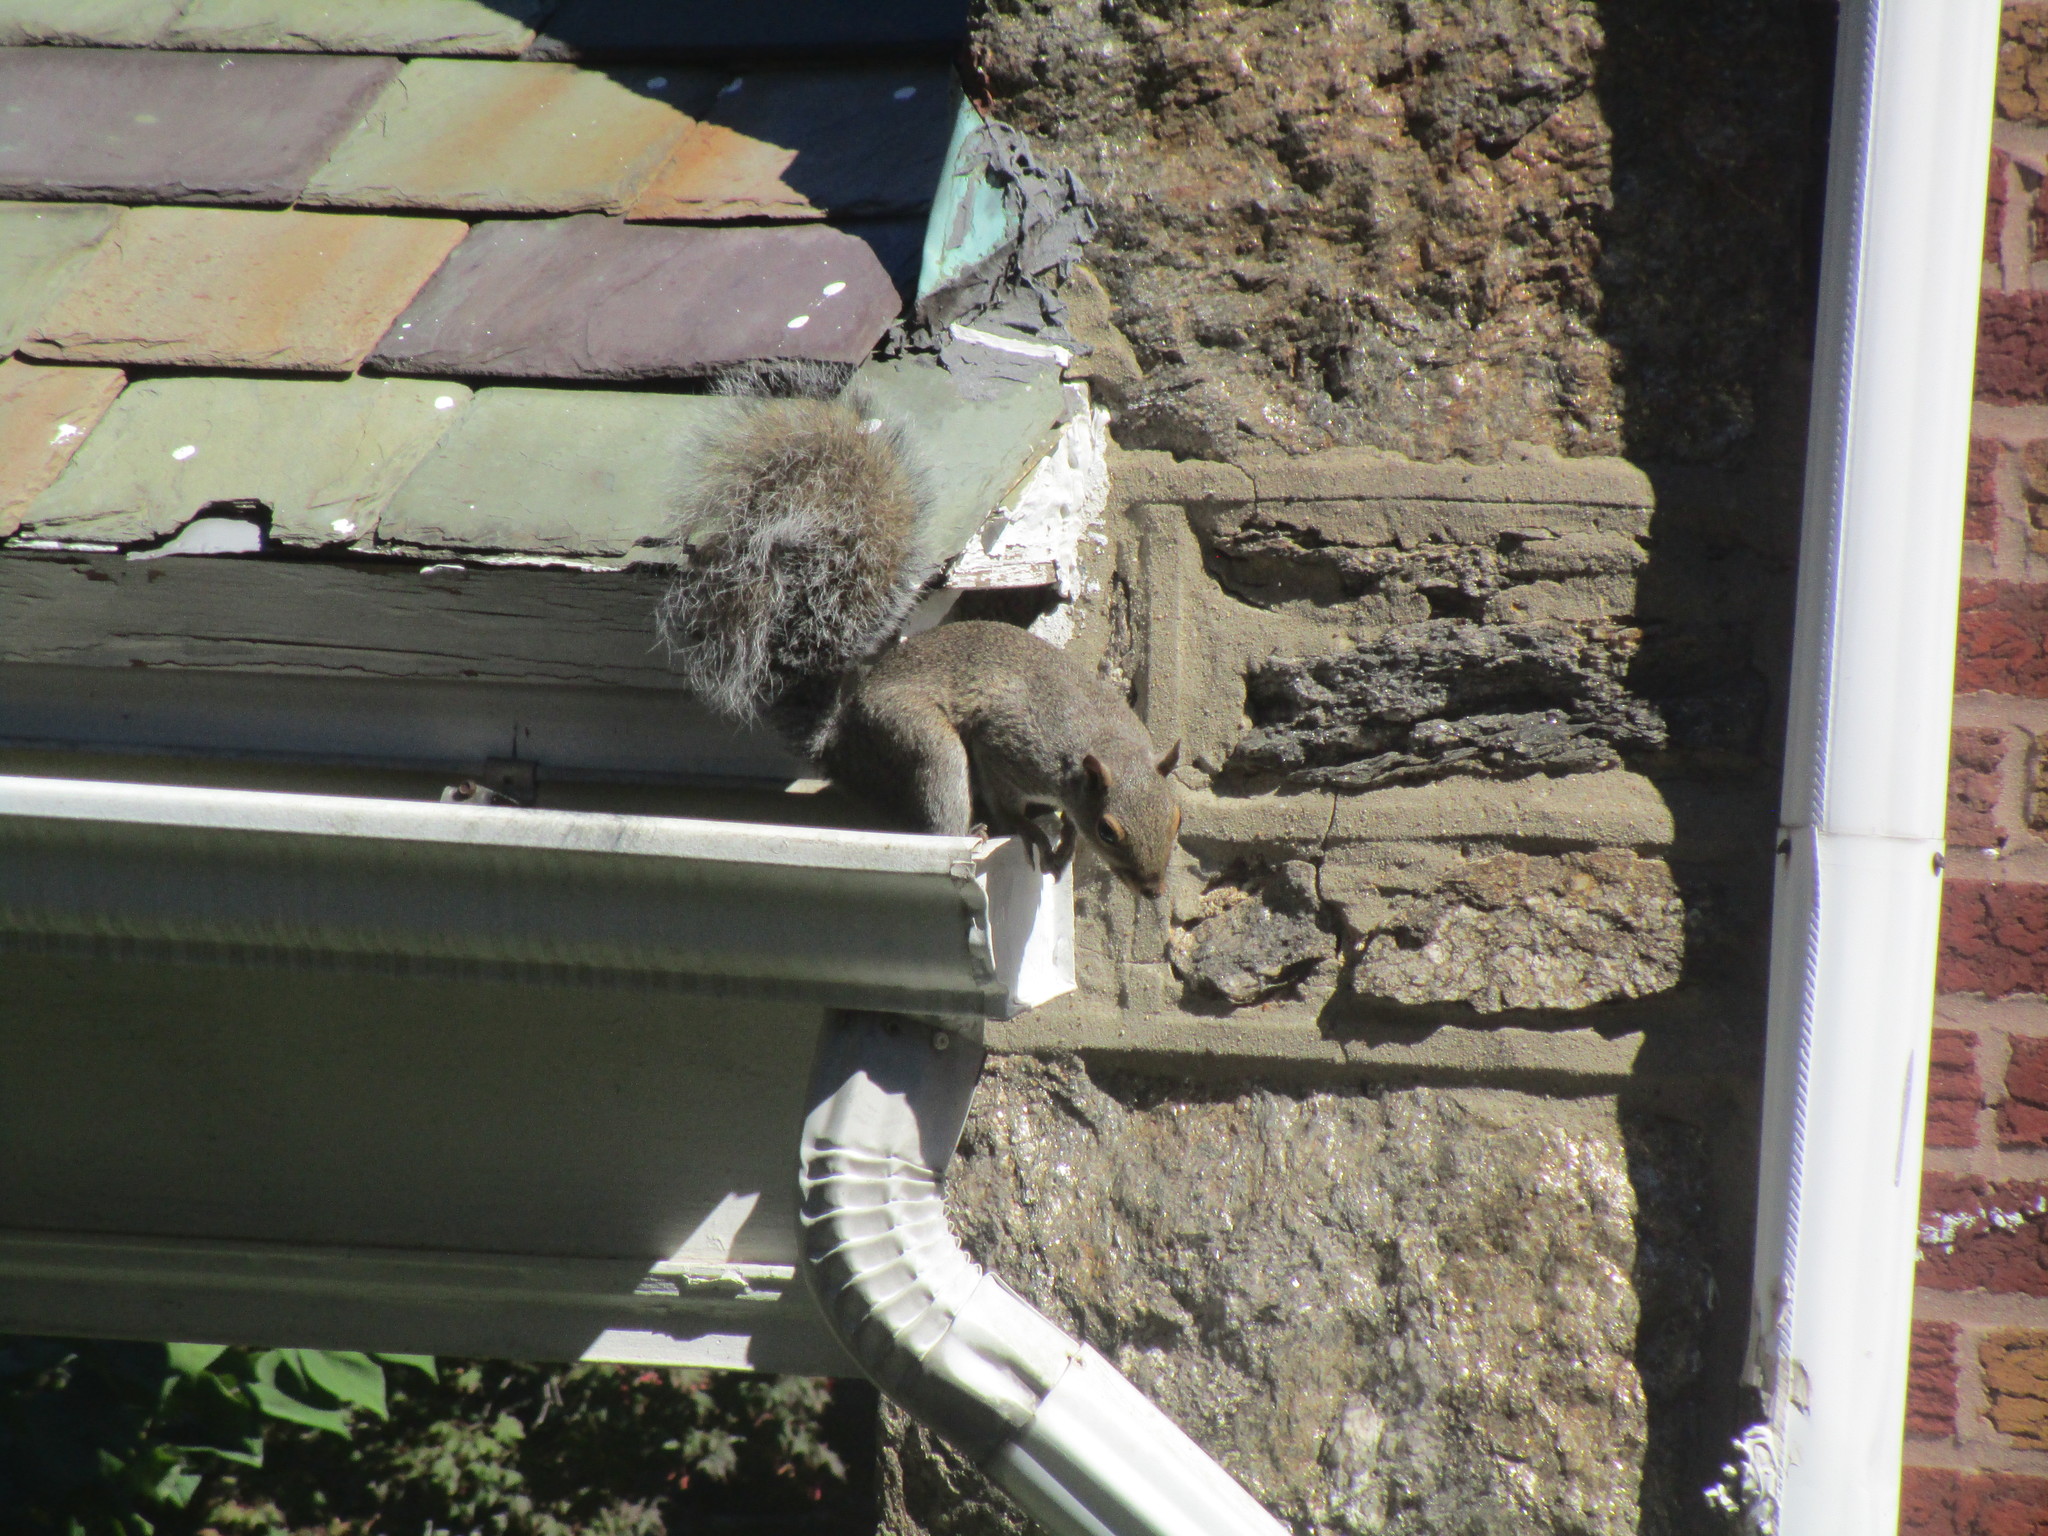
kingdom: Animalia
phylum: Chordata
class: Mammalia
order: Rodentia
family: Sciuridae
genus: Sciurus
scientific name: Sciurus carolinensis
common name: Eastern gray squirrel
